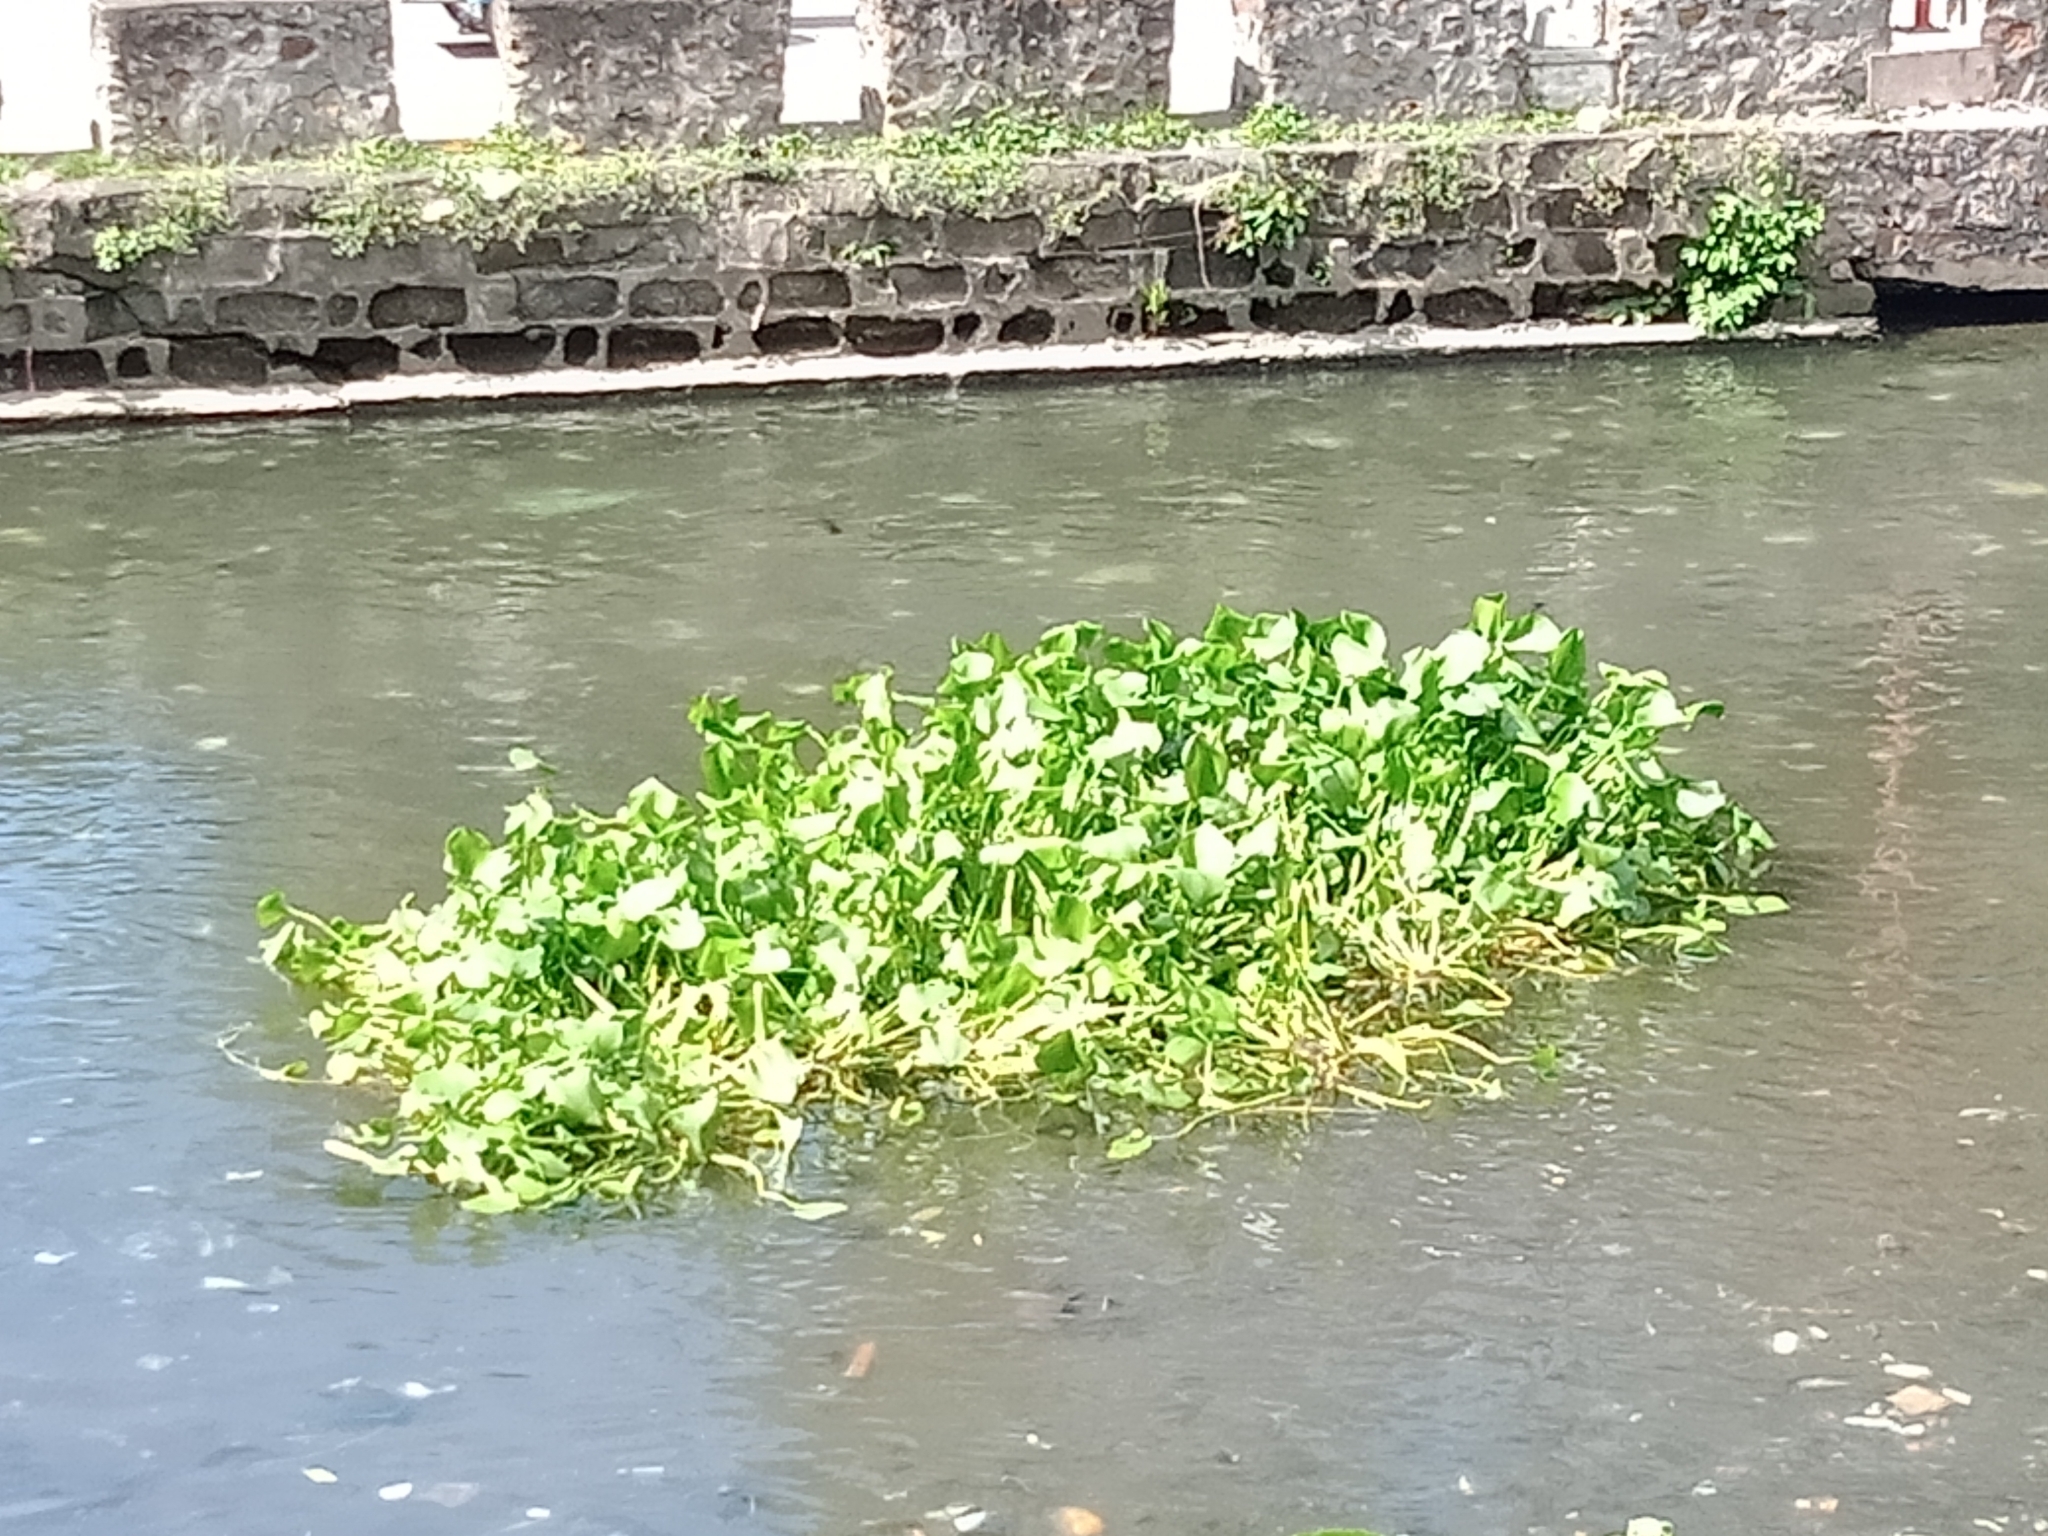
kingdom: Plantae
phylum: Tracheophyta
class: Liliopsida
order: Commelinales
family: Pontederiaceae
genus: Pontederia
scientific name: Pontederia crassipes
